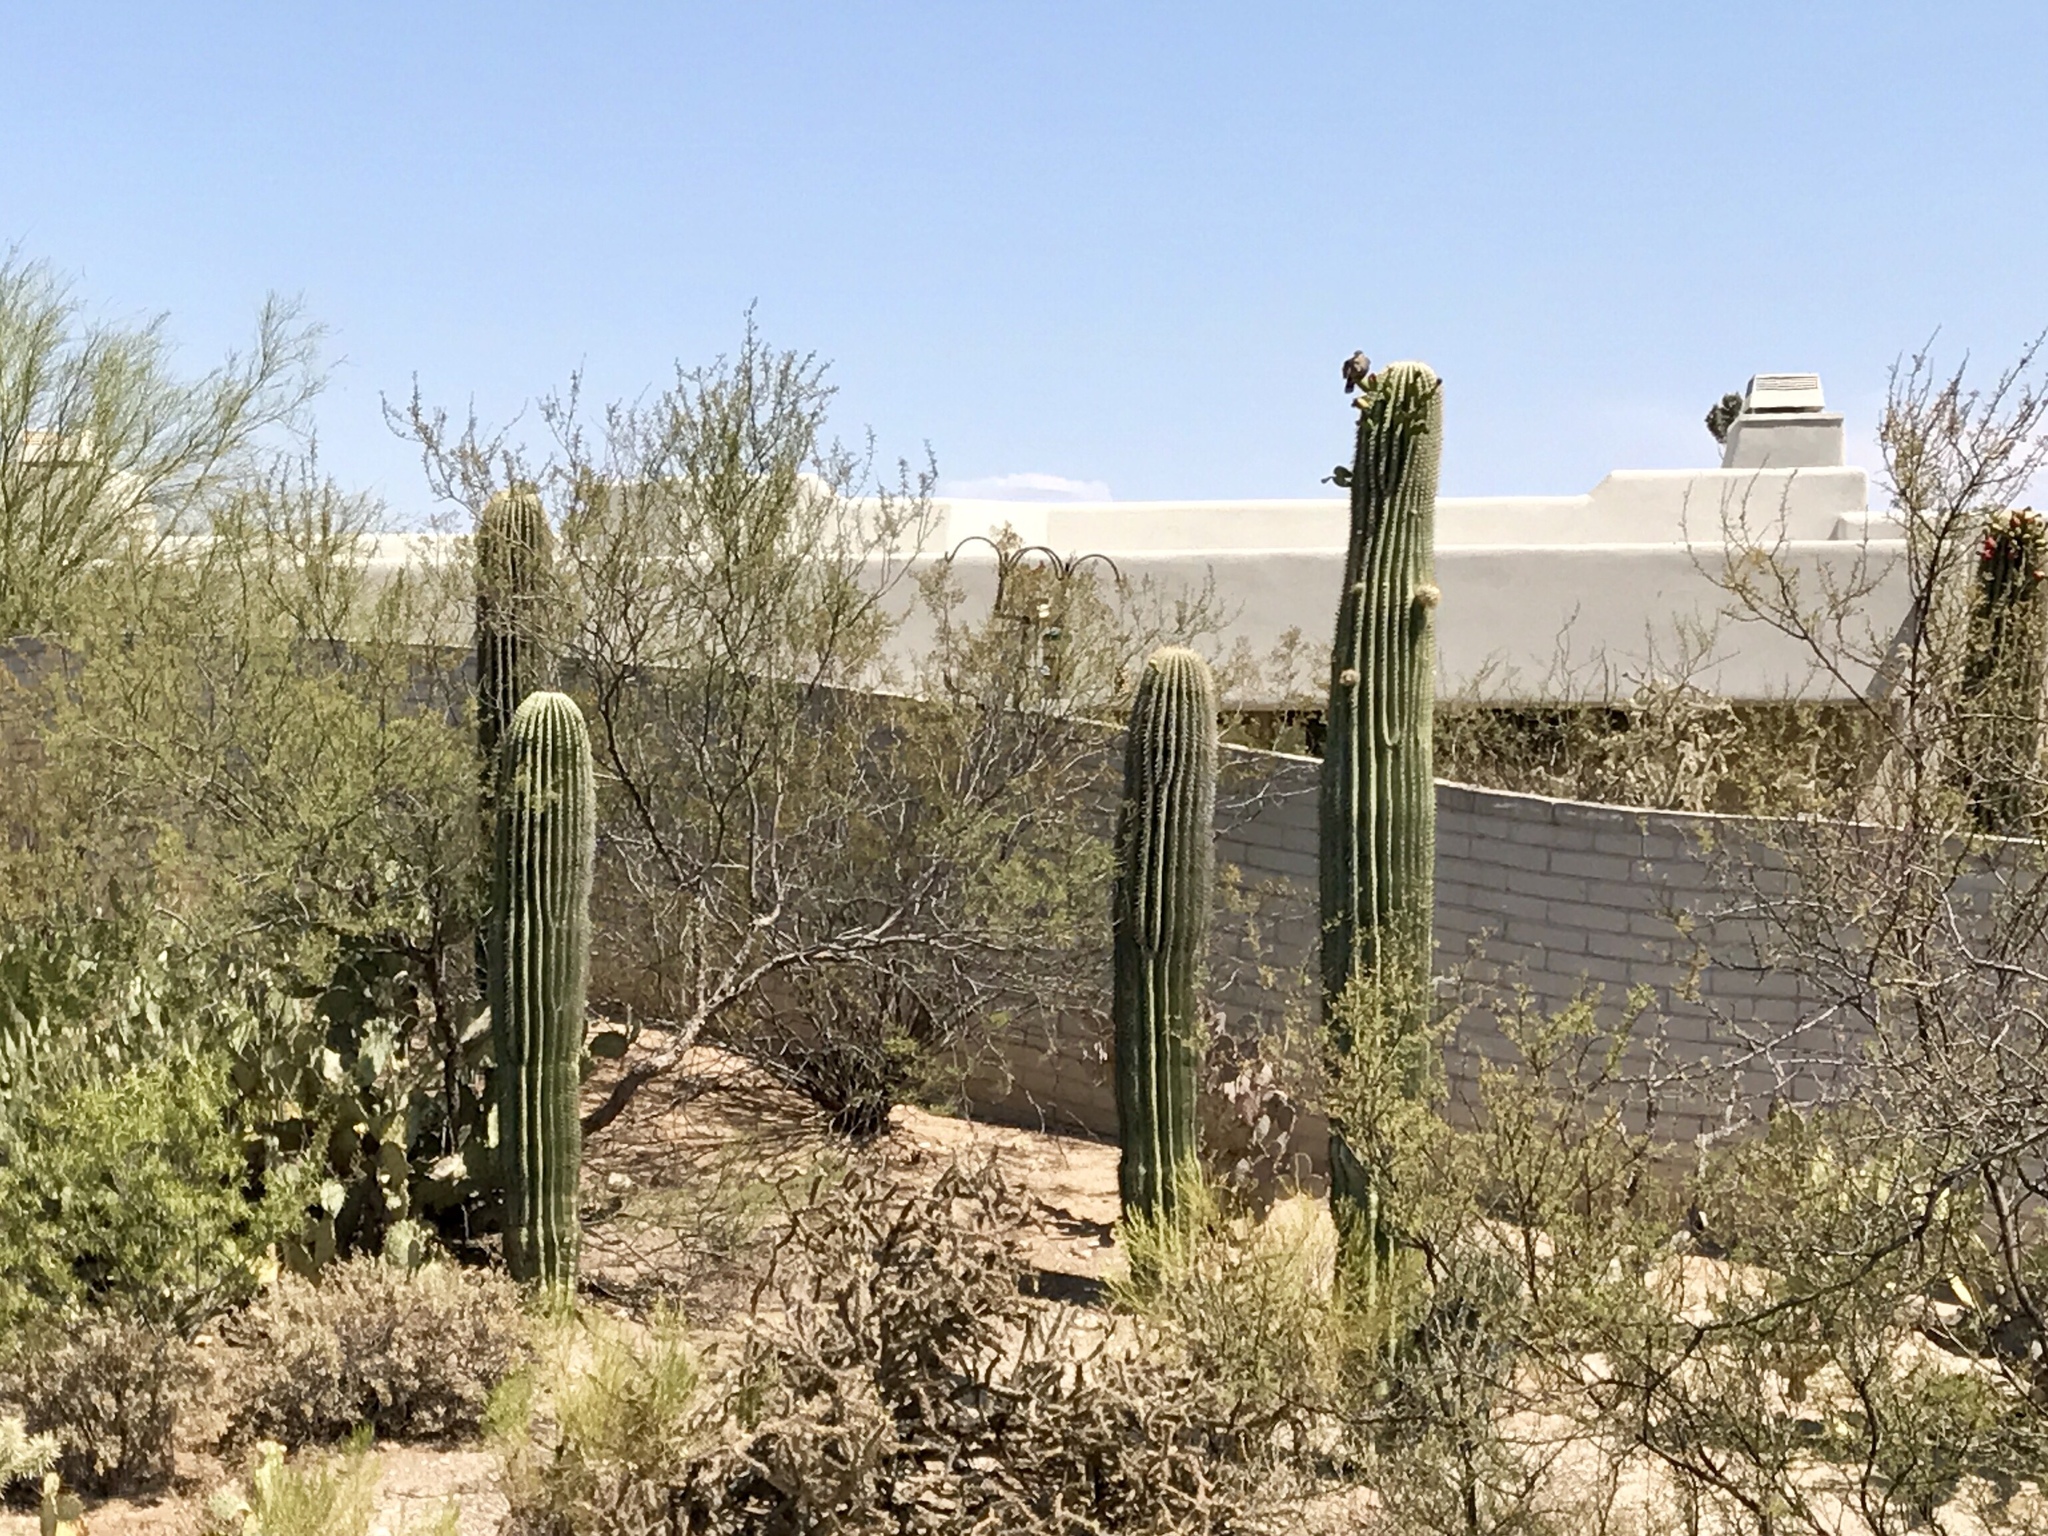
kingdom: Plantae
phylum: Tracheophyta
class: Magnoliopsida
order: Caryophyllales
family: Cactaceae
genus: Carnegiea
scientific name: Carnegiea gigantea
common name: Saguaro
